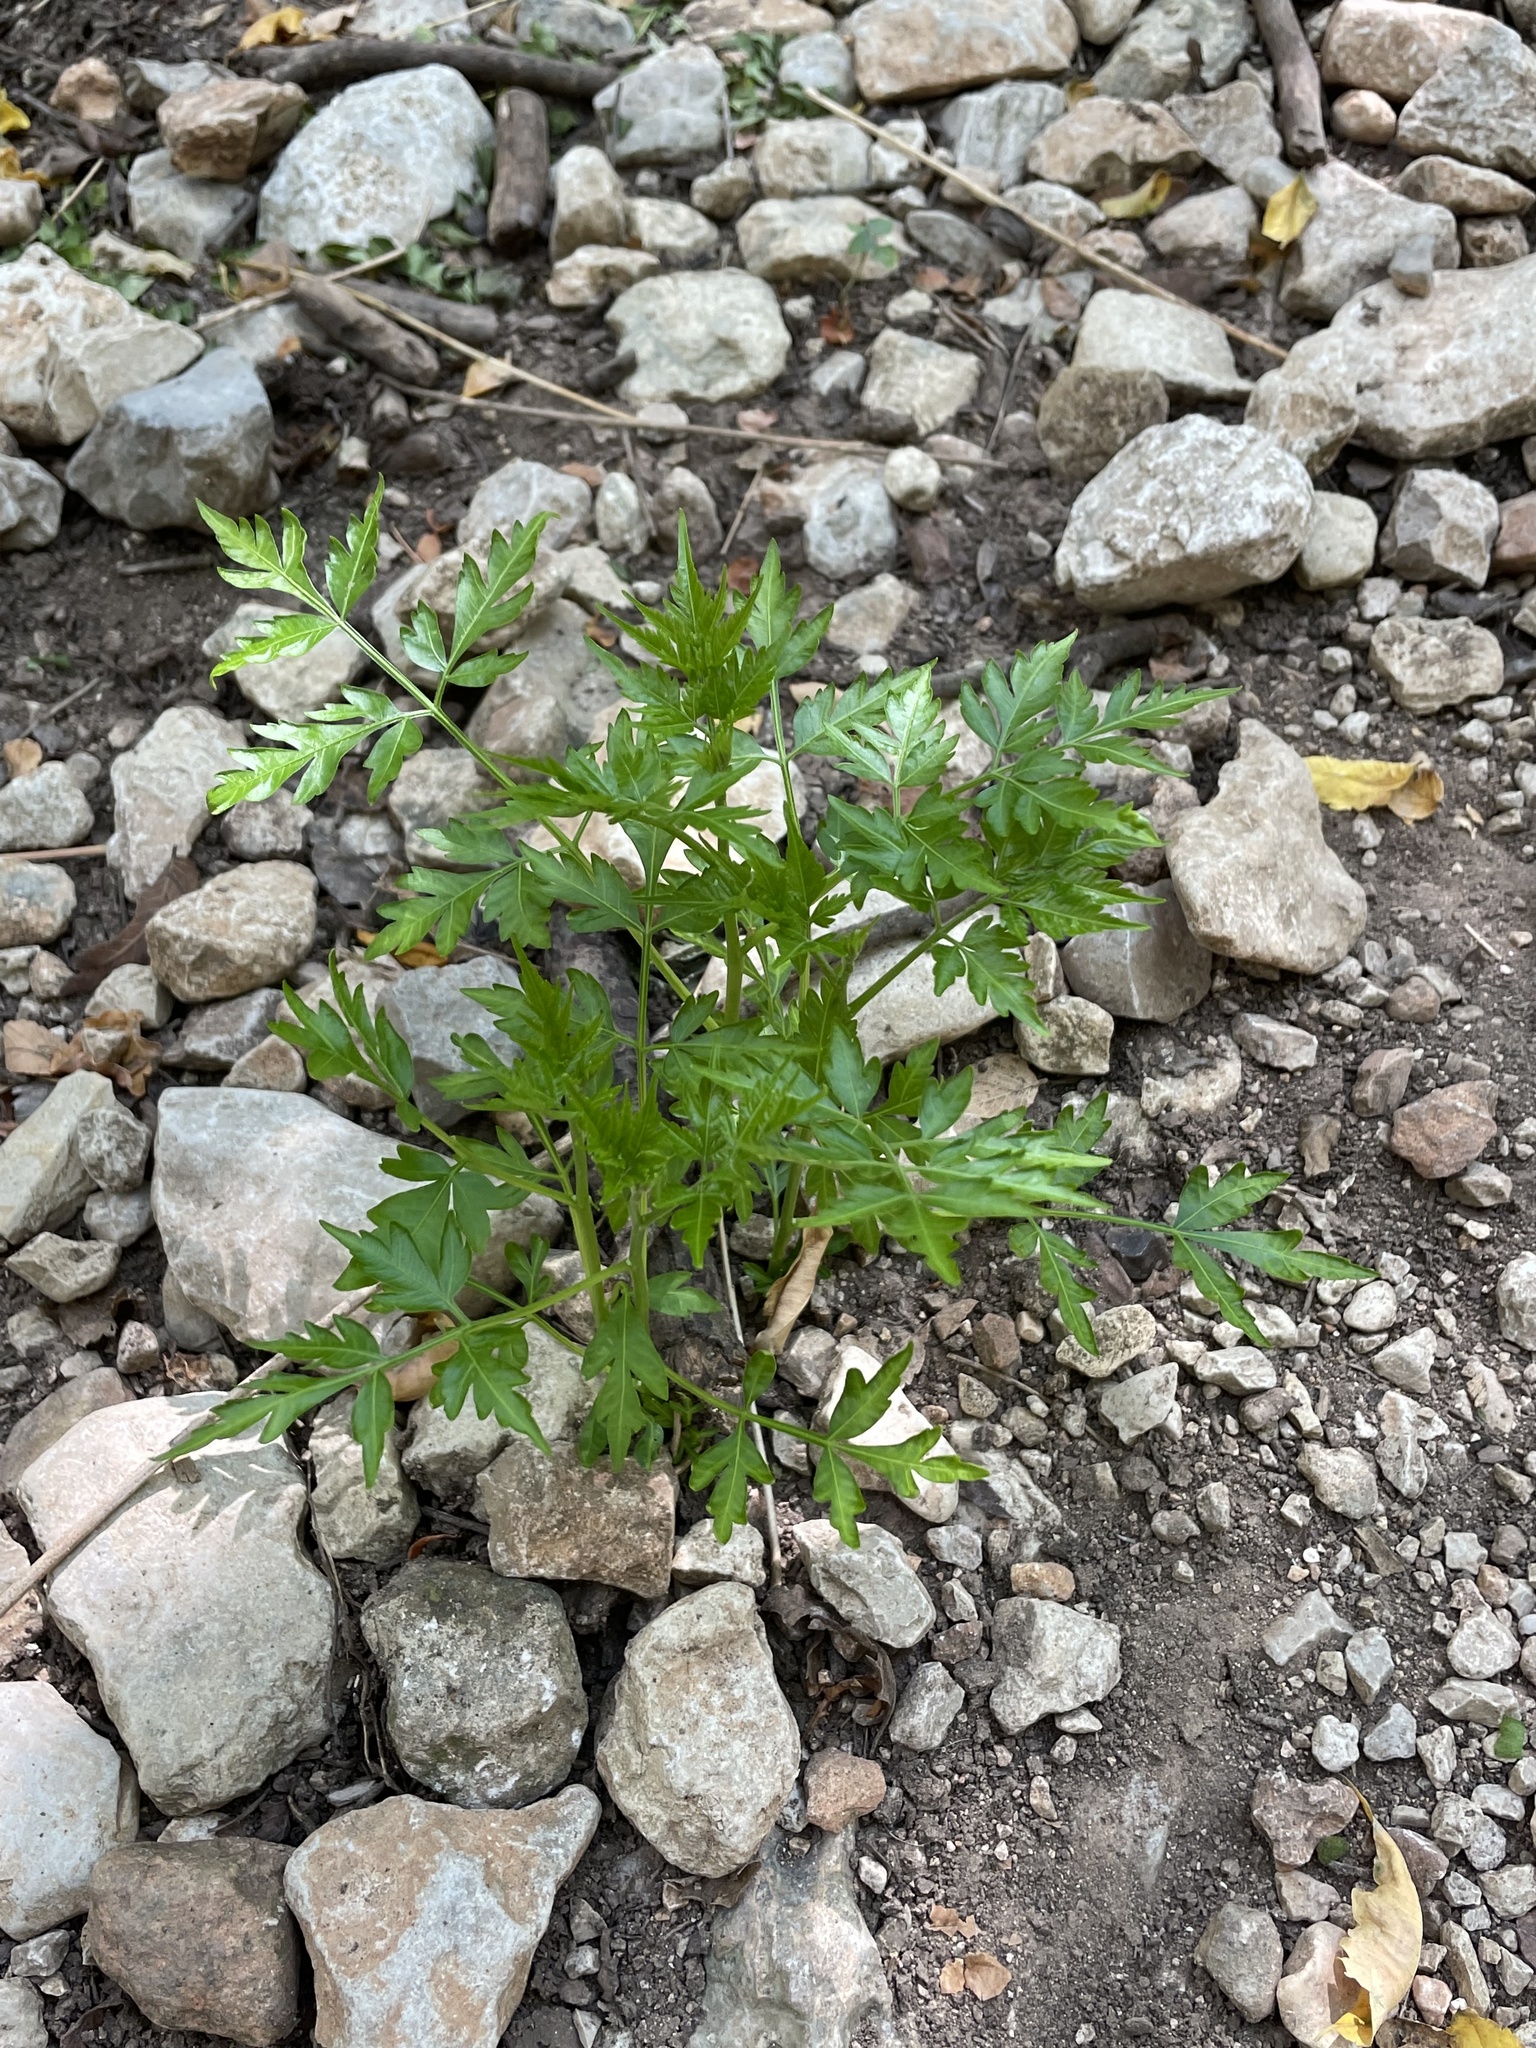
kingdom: Plantae
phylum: Tracheophyta
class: Magnoliopsida
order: Sapindales
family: Meliaceae
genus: Melia
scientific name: Melia azedarach
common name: Chinaberrytree
